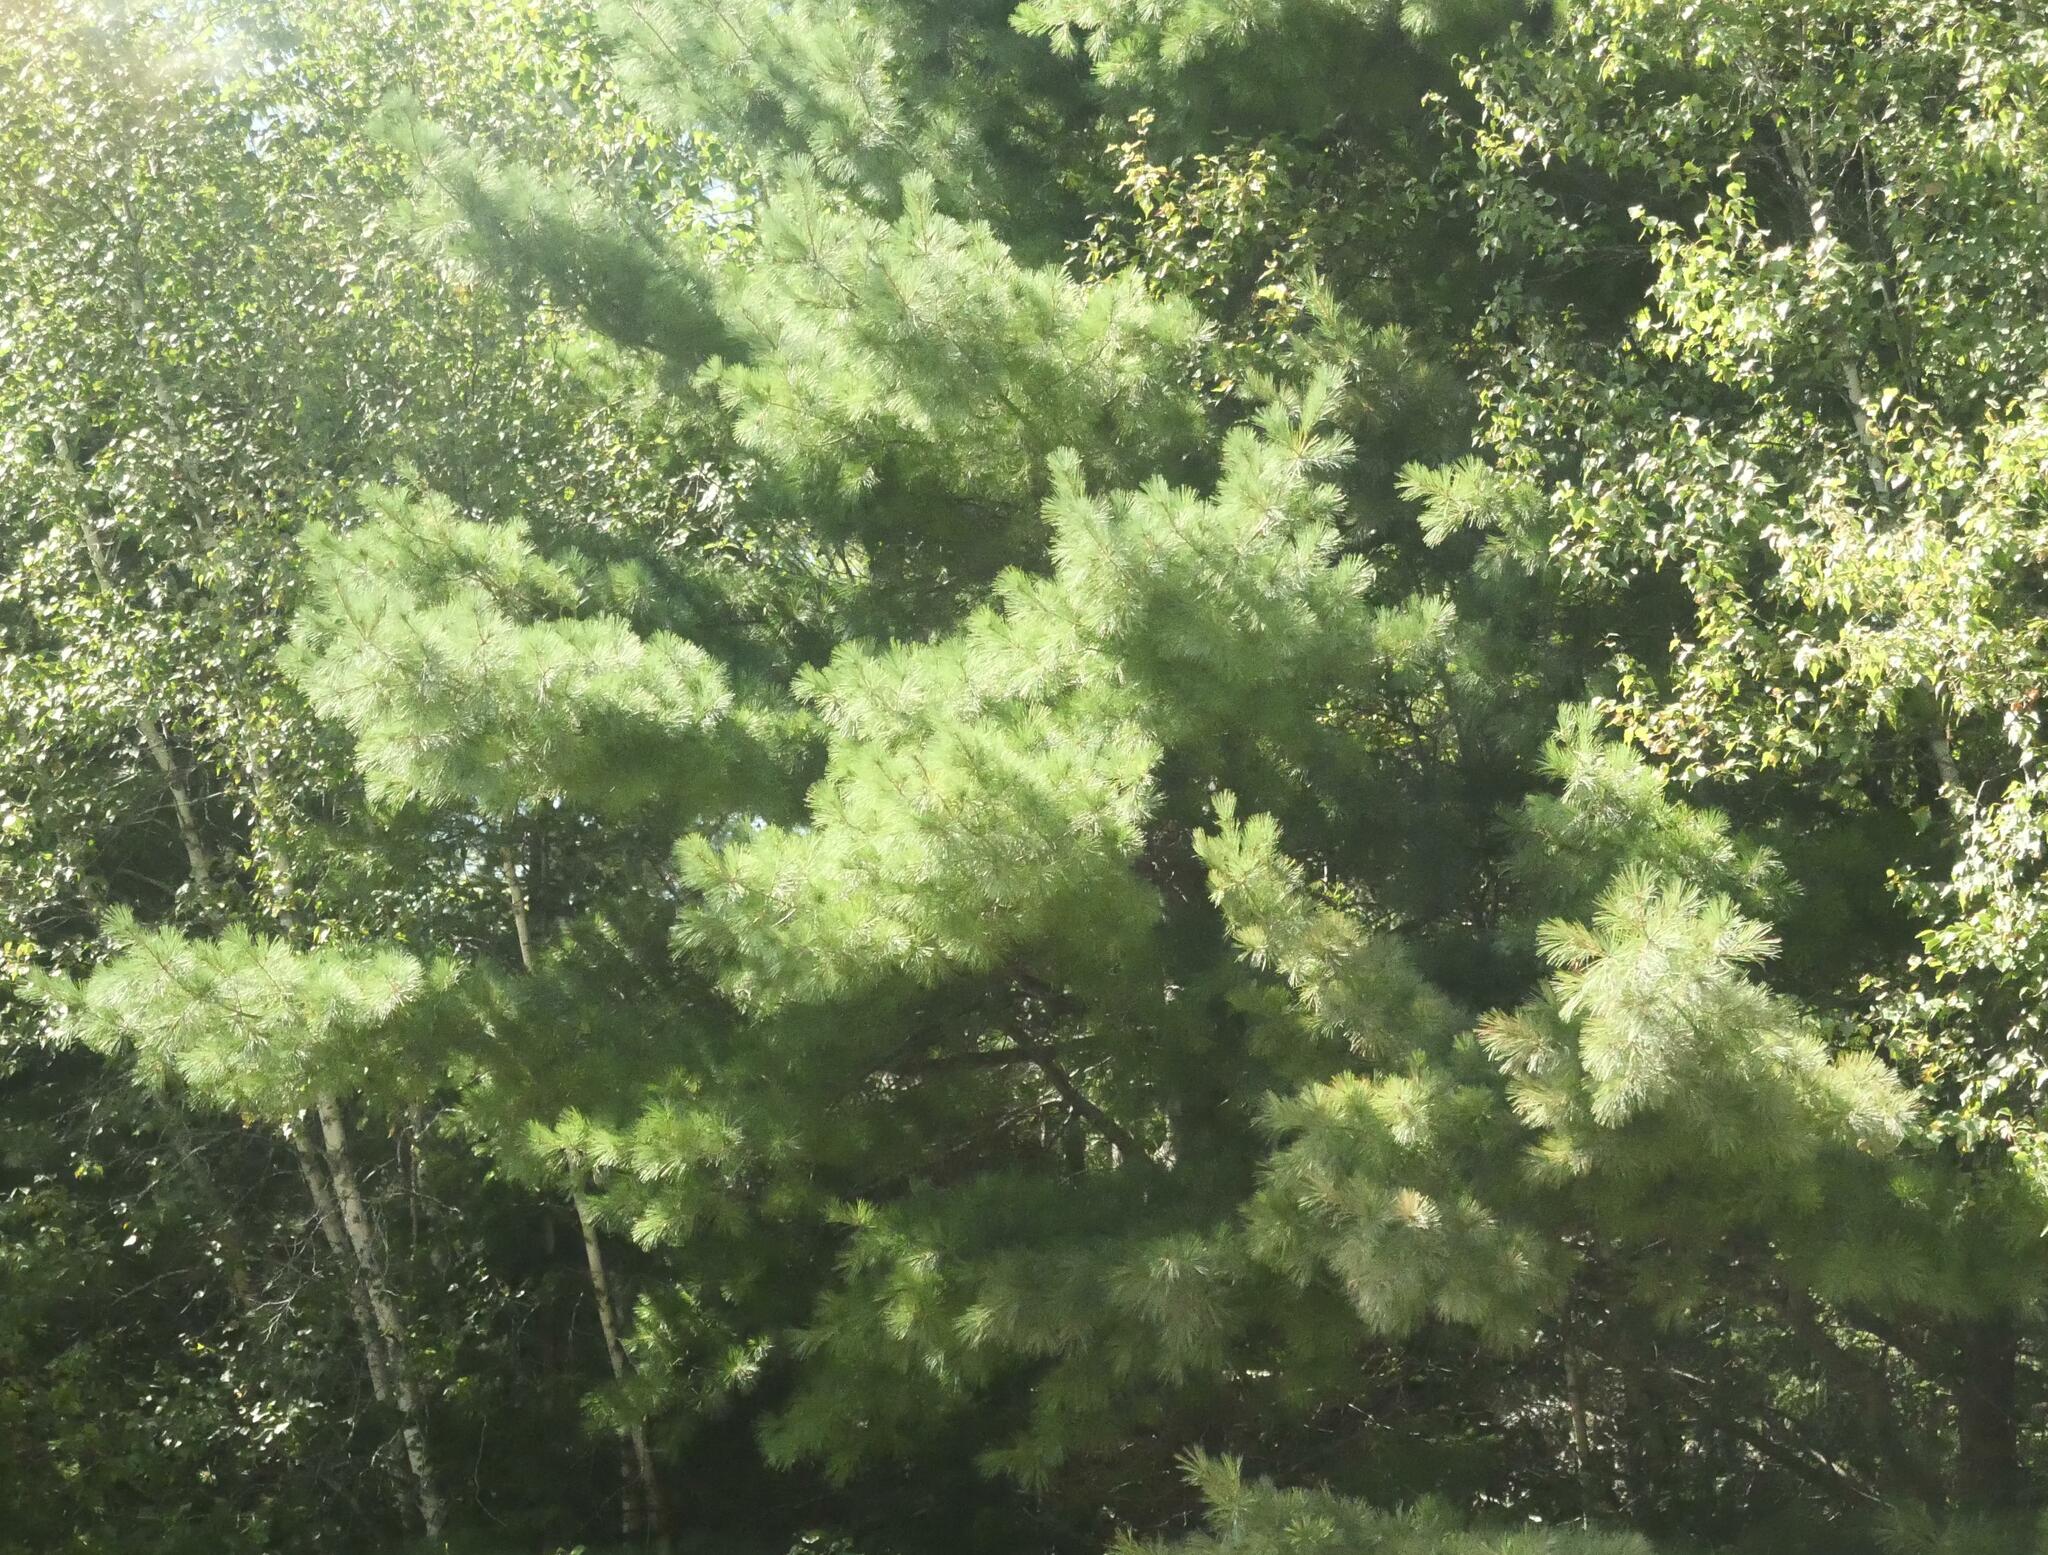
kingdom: Plantae
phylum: Tracheophyta
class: Pinopsida
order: Pinales
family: Pinaceae
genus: Pinus
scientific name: Pinus strobus
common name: Weymouth pine
